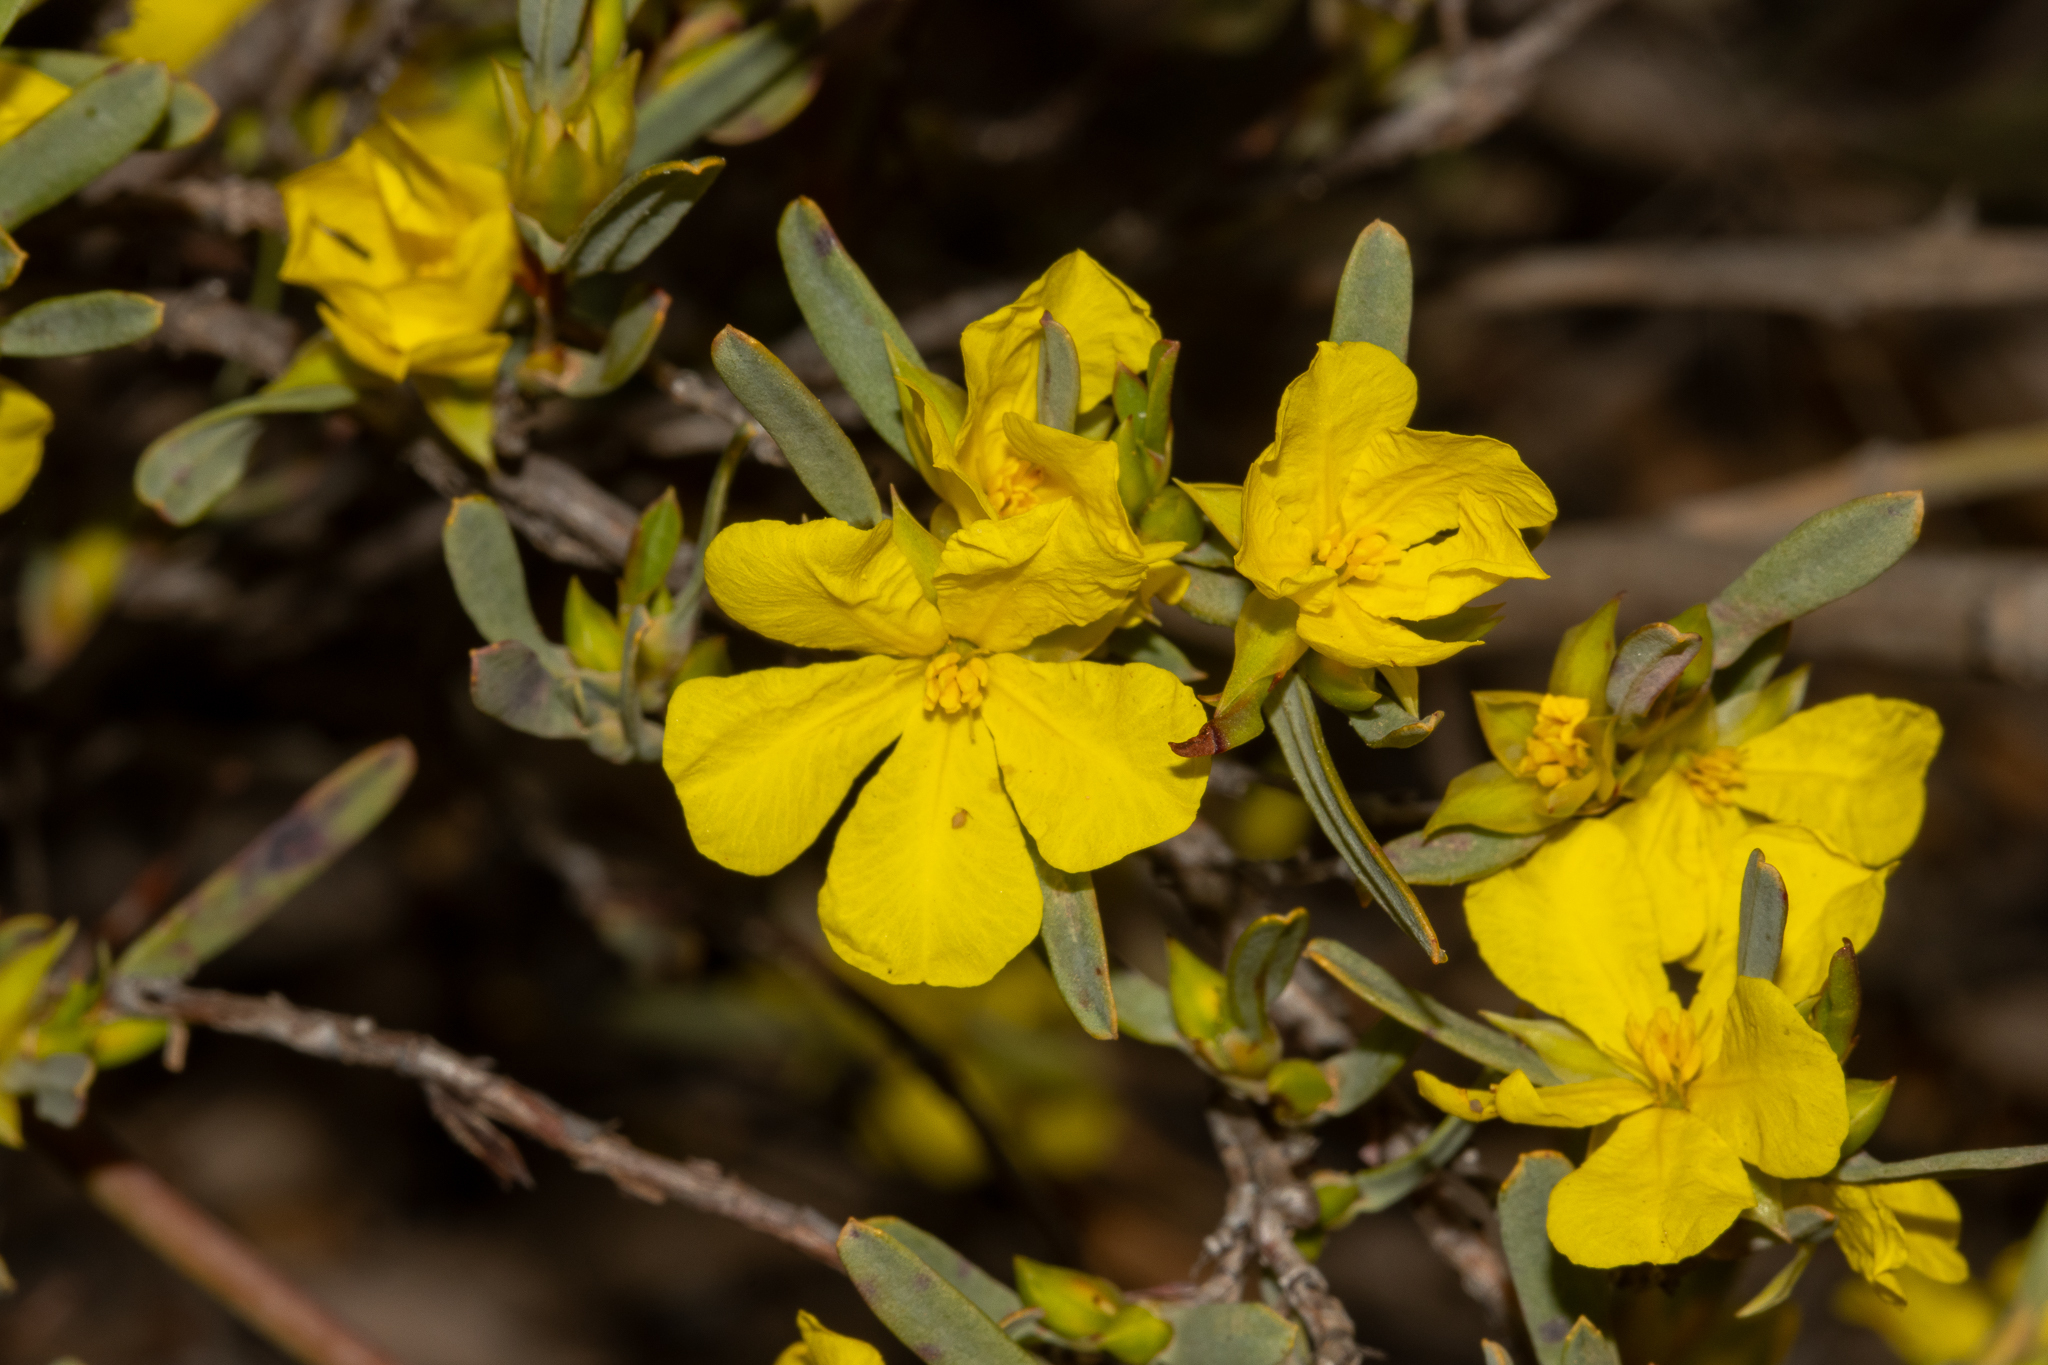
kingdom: Plantae
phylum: Tracheophyta
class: Magnoliopsida
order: Dilleniales
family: Dilleniaceae
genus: Hibbertia
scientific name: Hibbertia subvaginata
